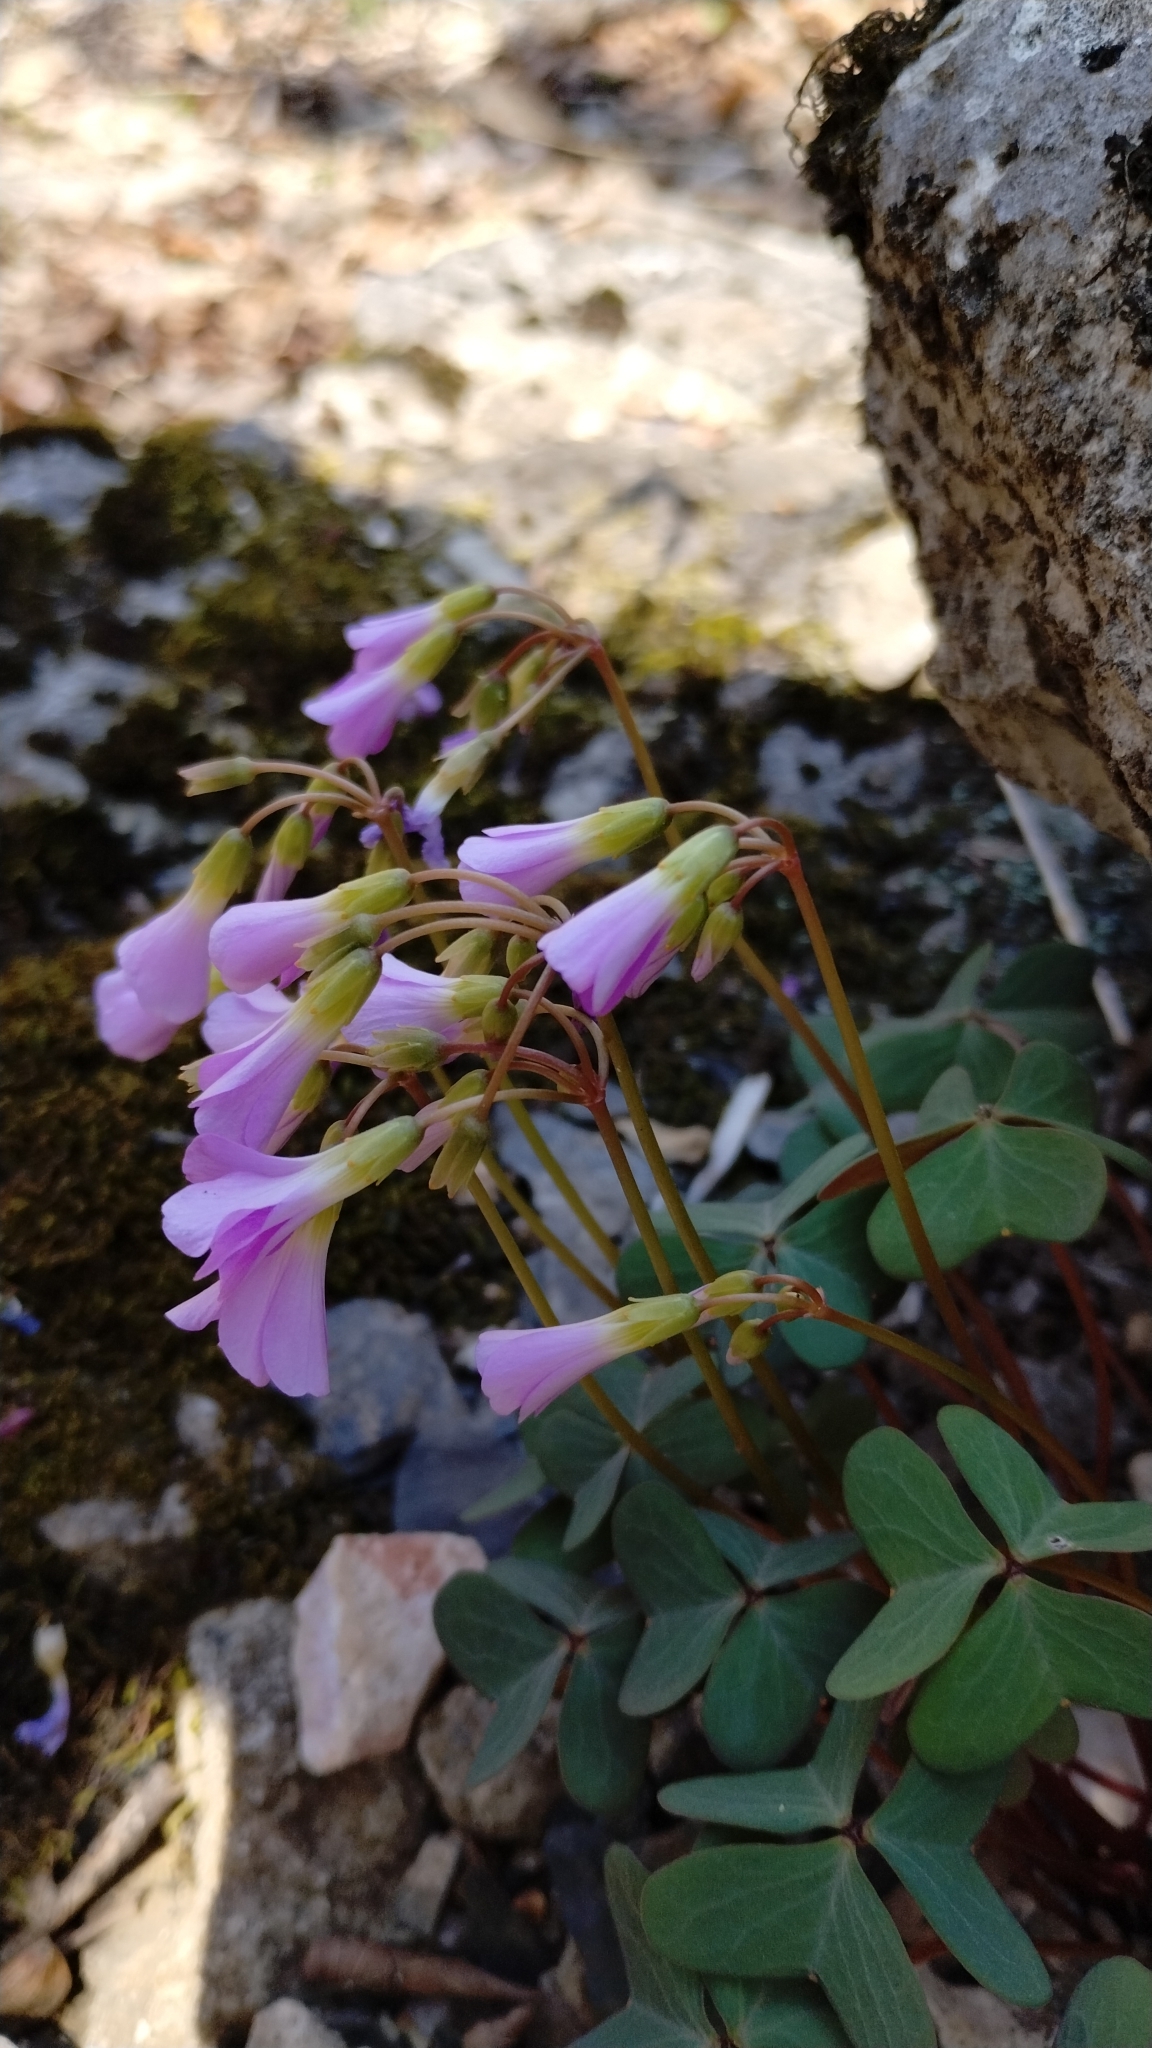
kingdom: Plantae
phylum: Tracheophyta
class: Magnoliopsida
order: Oxalidales
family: Oxalidaceae
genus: Oxalis
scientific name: Oxalis violacea
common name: Violet wood-sorrel
